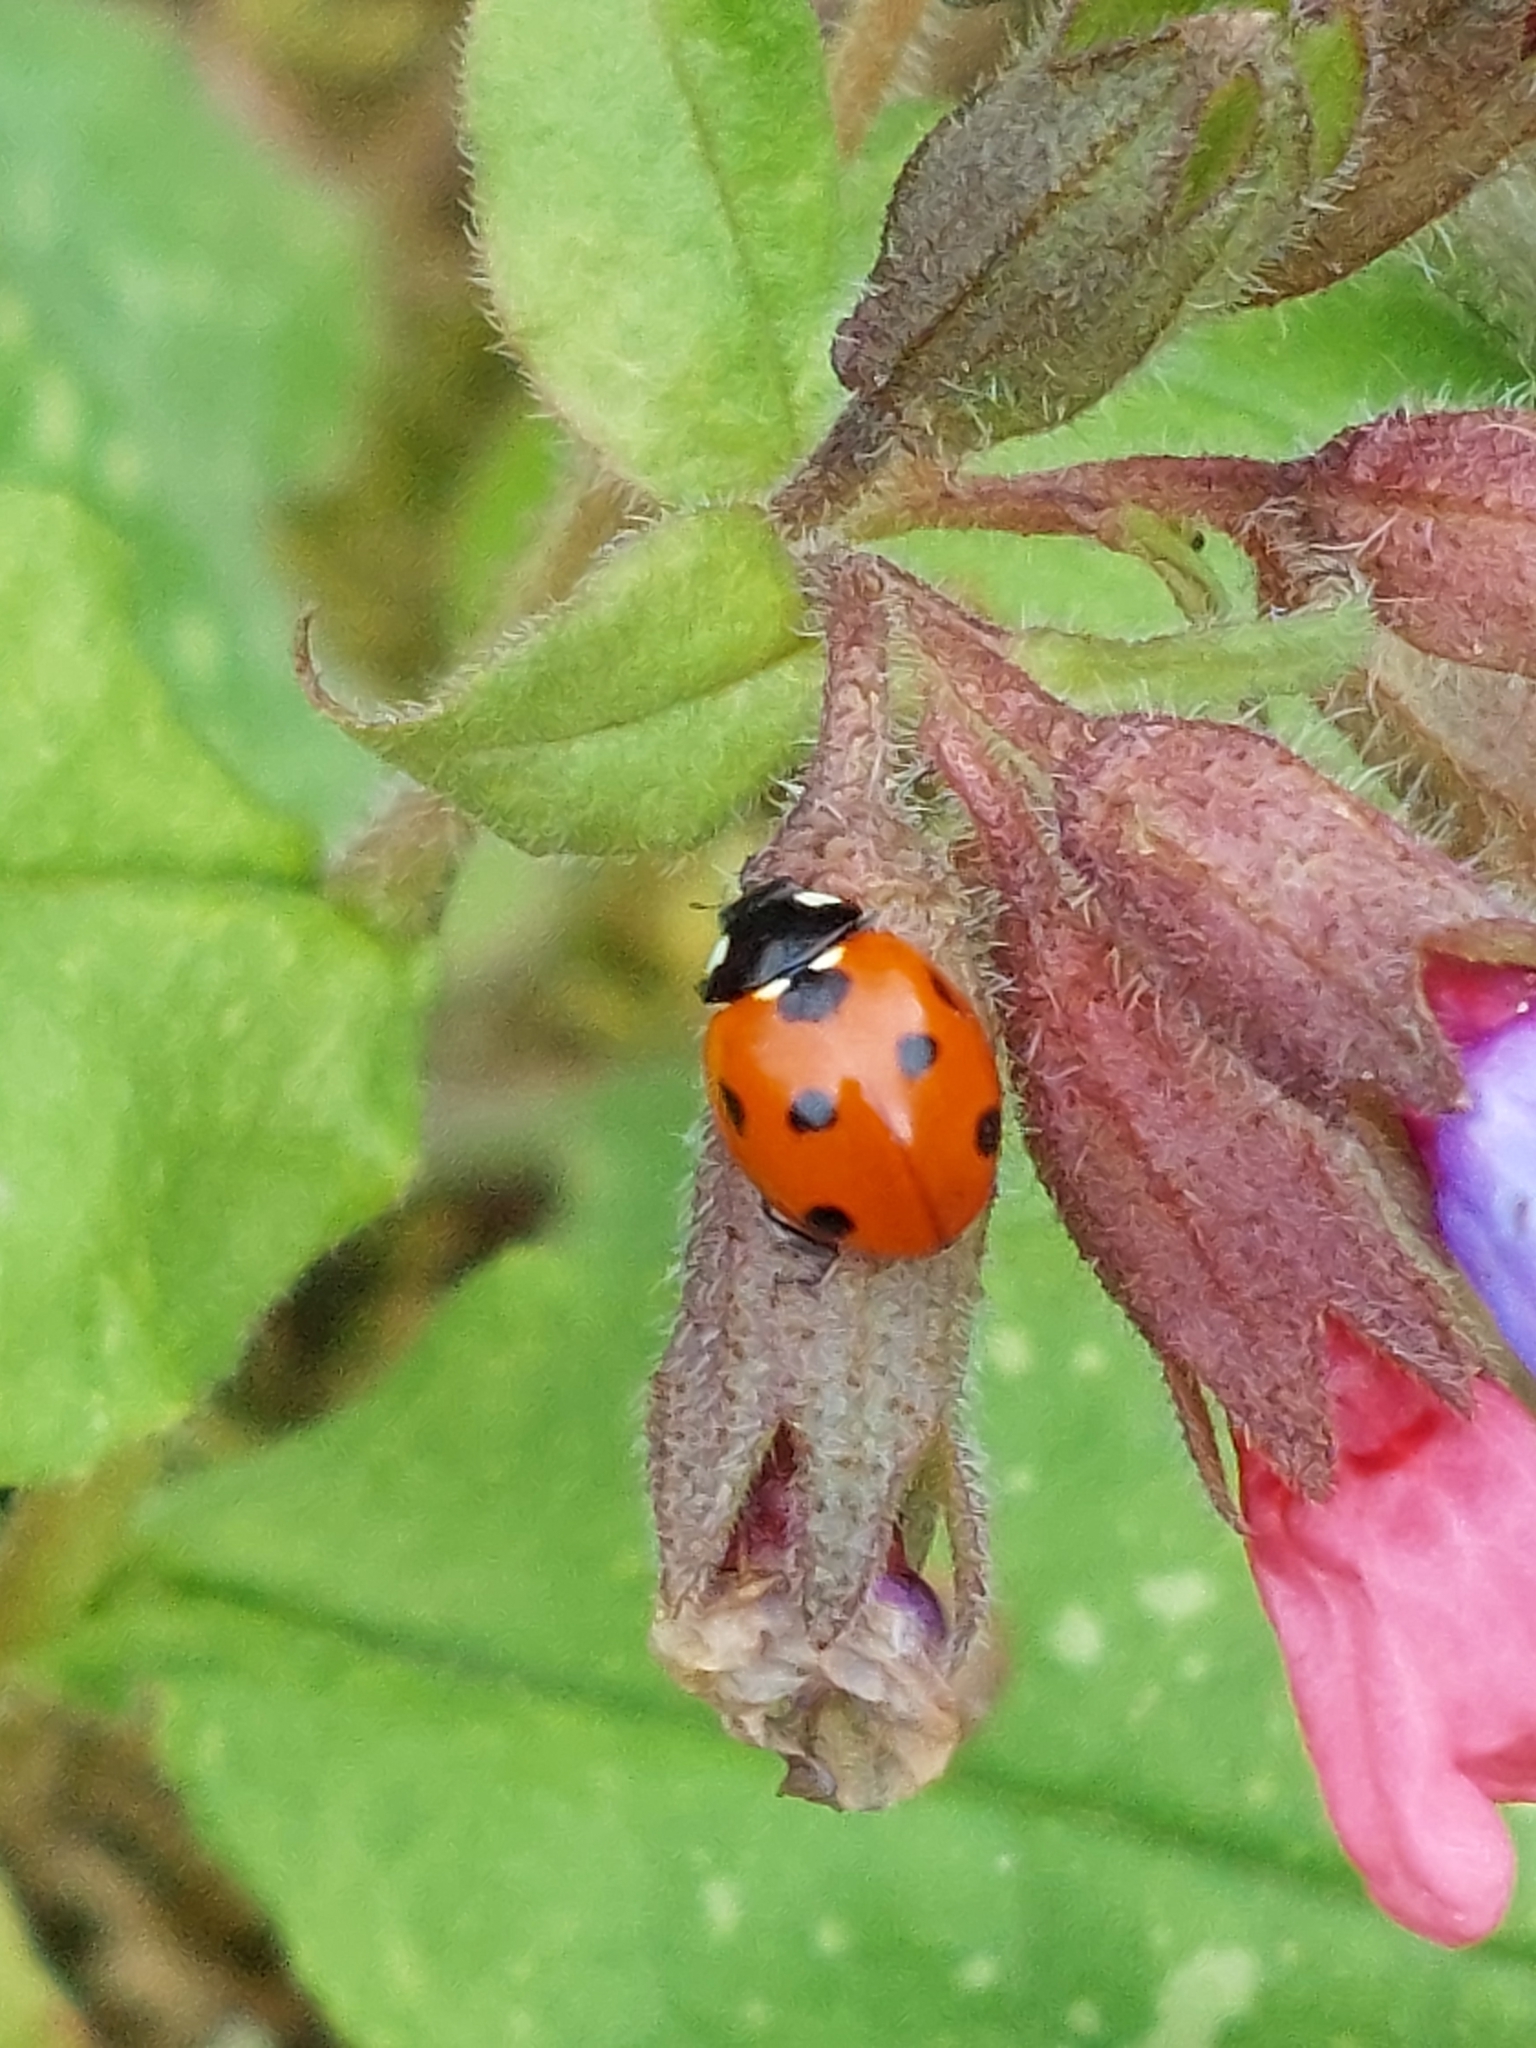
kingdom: Animalia
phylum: Arthropoda
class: Insecta
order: Coleoptera
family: Coccinellidae
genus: Coccinella
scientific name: Coccinella septempunctata
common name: Sevenspotted lady beetle
